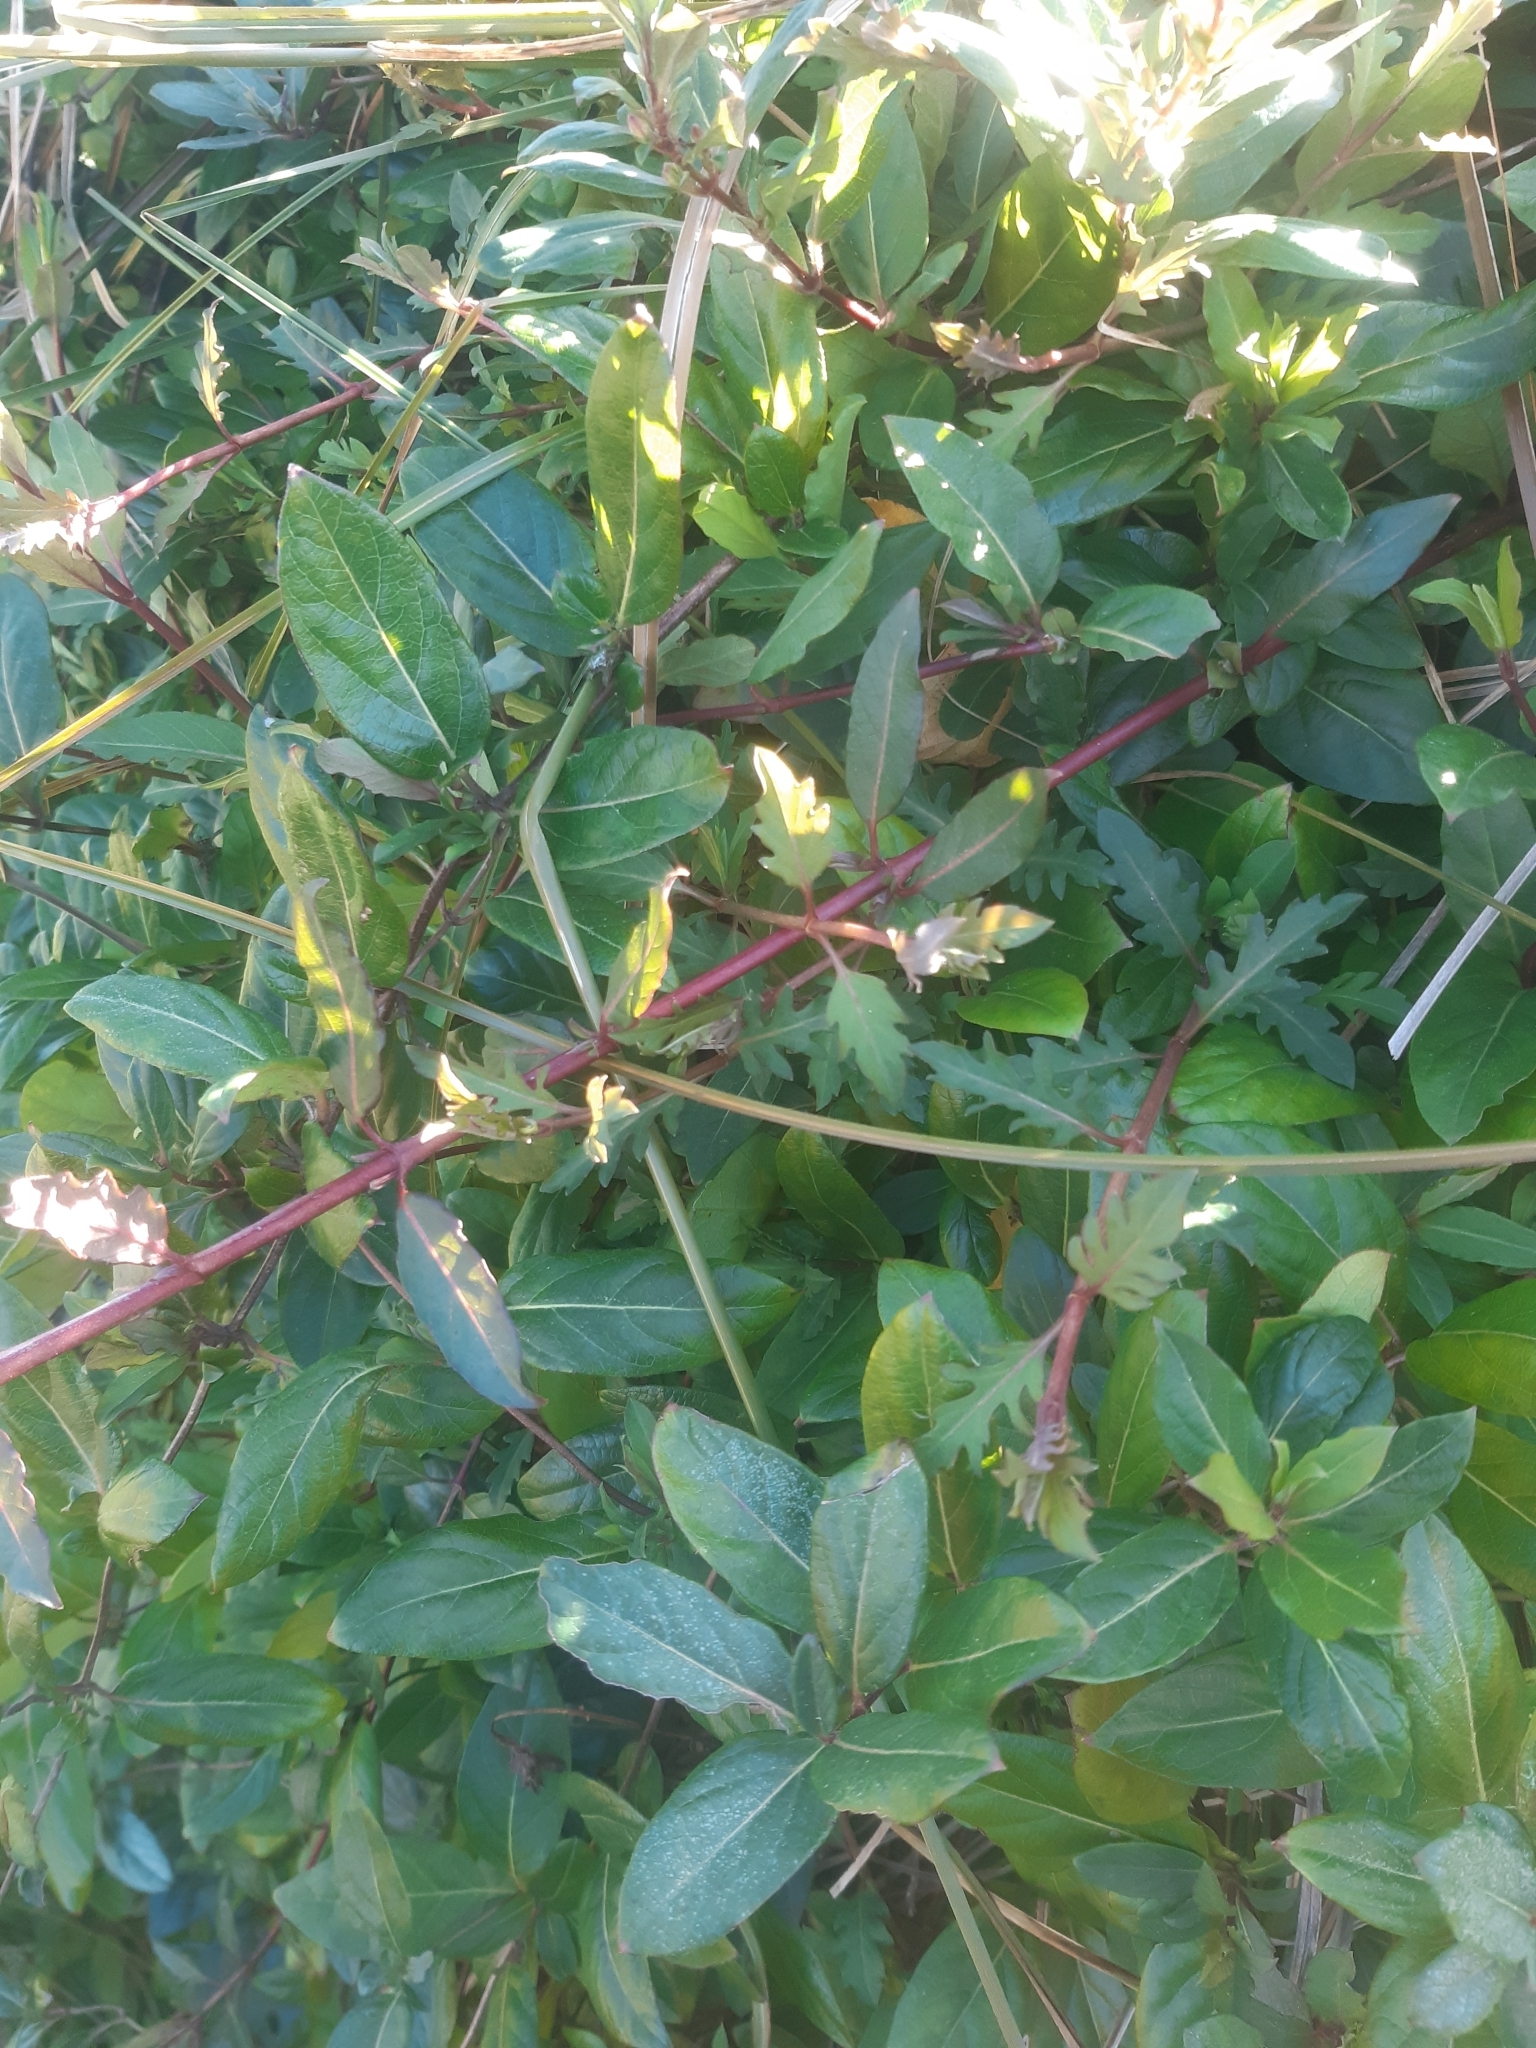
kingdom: Plantae
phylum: Tracheophyta
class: Magnoliopsida
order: Dipsacales
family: Caprifoliaceae
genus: Lonicera
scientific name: Lonicera japonica
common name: Japanese honeysuckle
